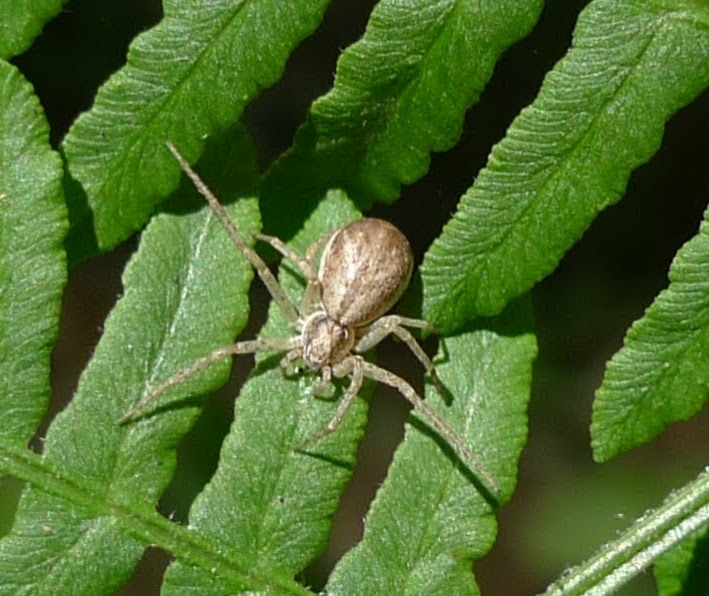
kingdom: Animalia
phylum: Arthropoda
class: Arachnida
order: Araneae
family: Philodromidae
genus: Philodromus
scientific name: Philodromus dispar
